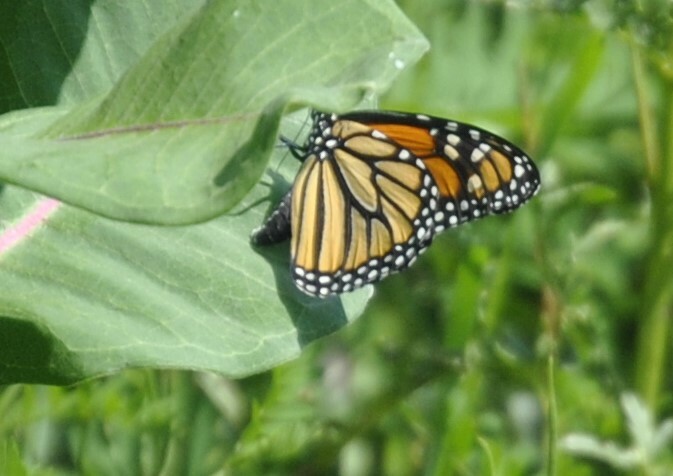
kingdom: Animalia
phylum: Arthropoda
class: Insecta
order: Lepidoptera
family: Nymphalidae
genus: Danaus
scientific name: Danaus plexippus
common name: Monarch
